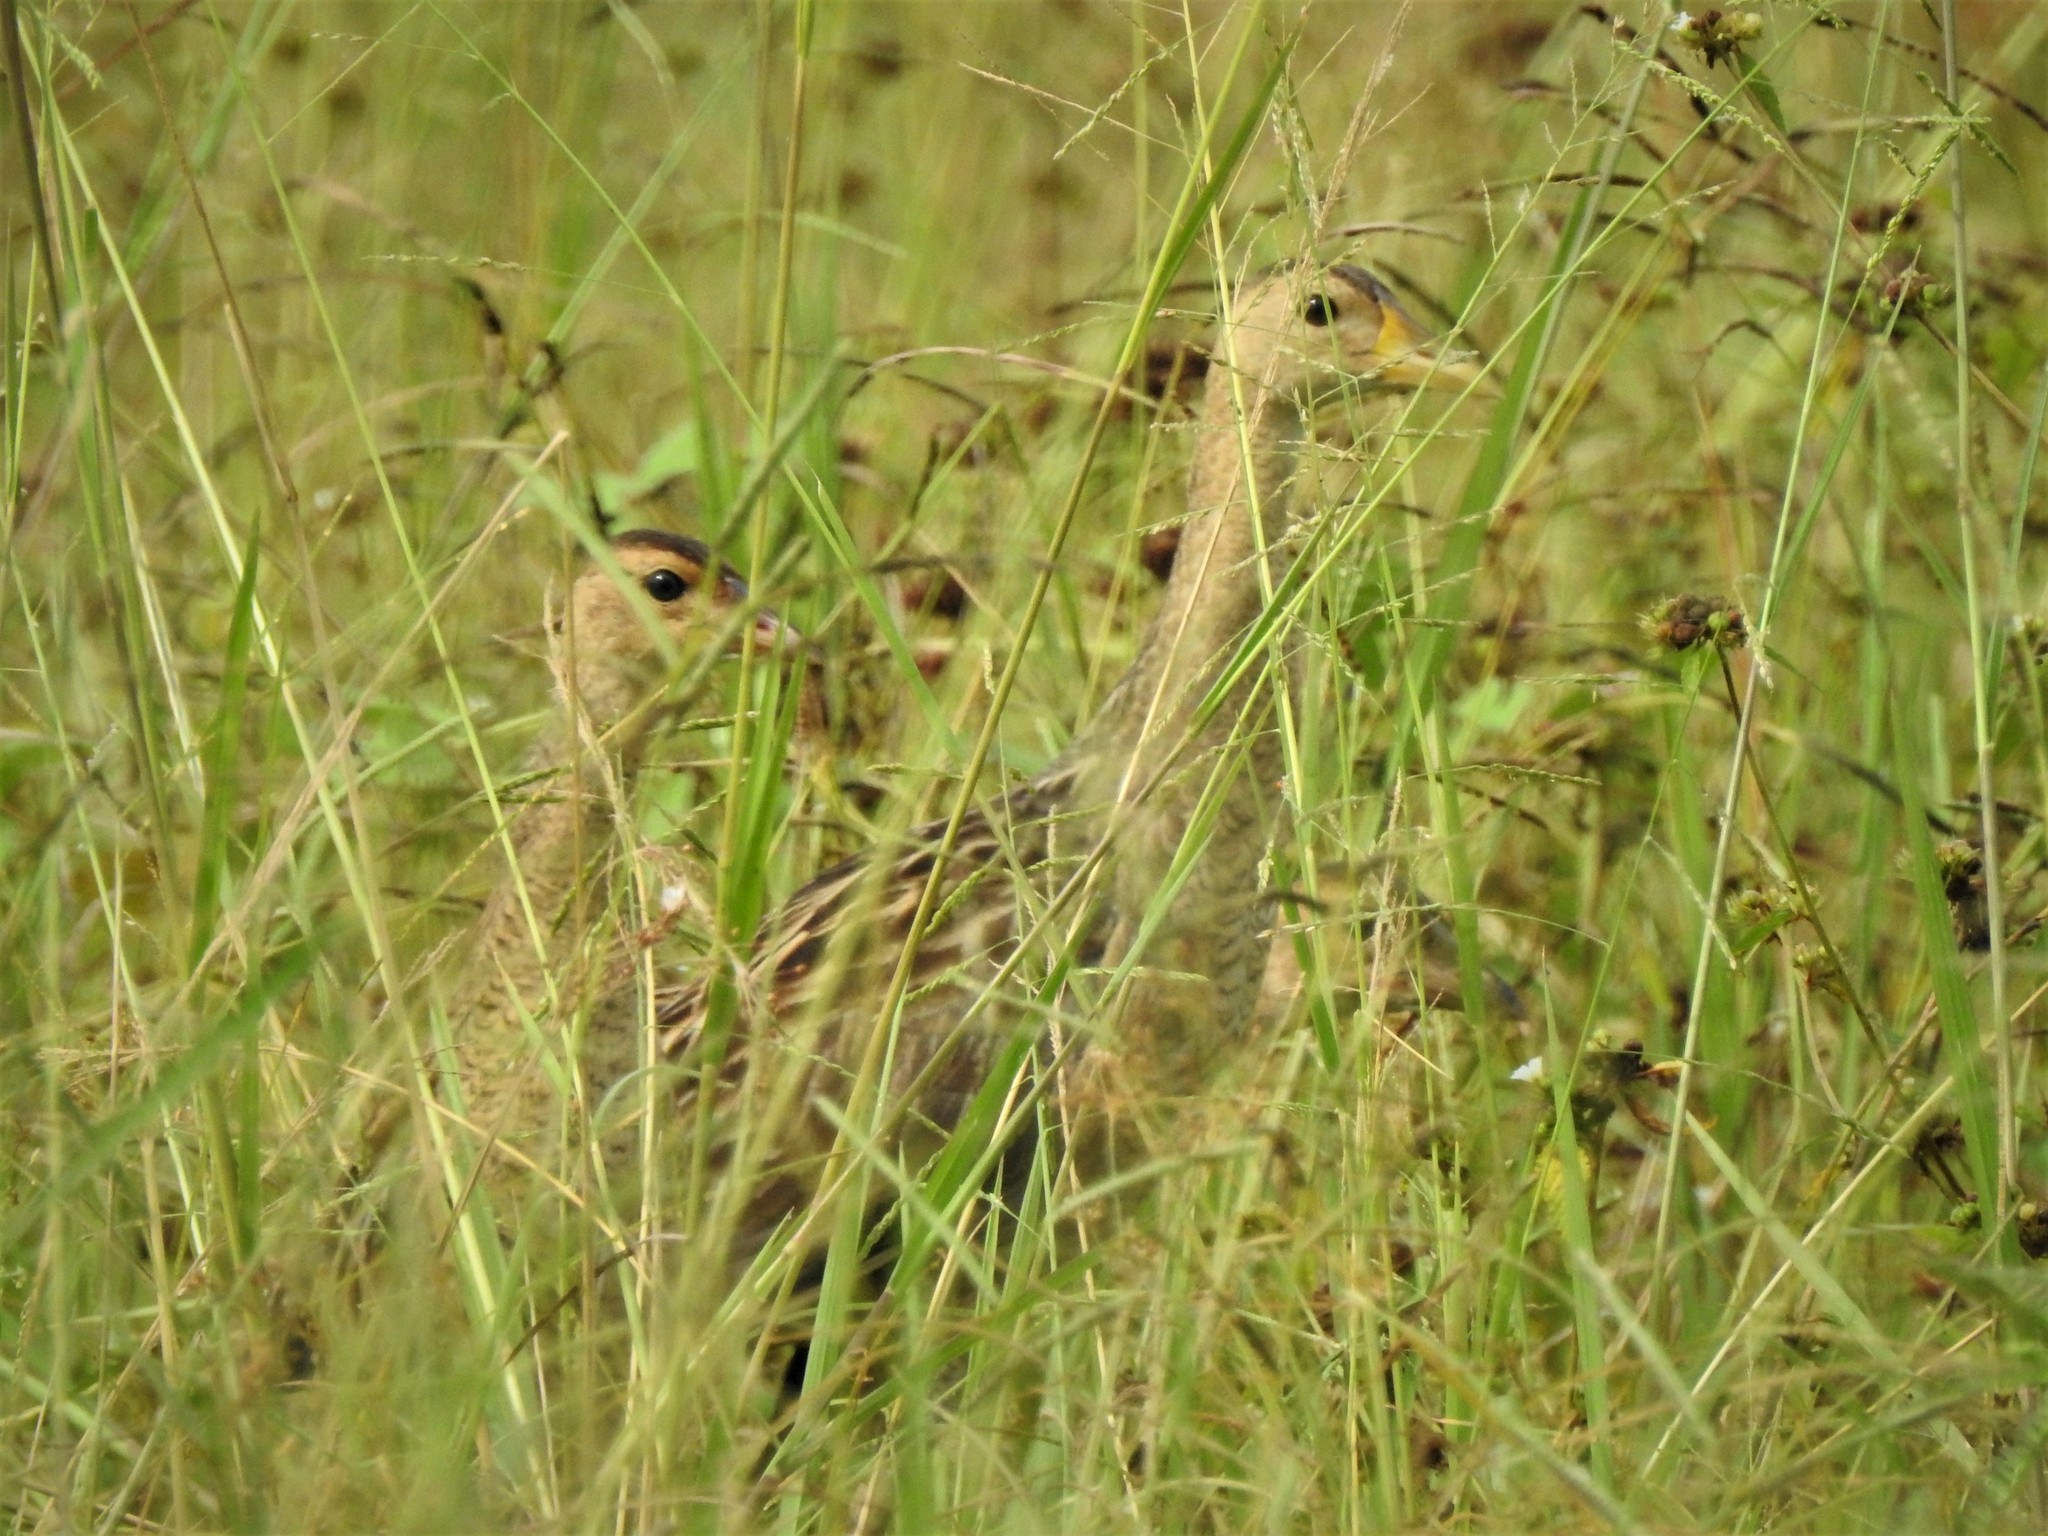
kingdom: Animalia
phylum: Chordata
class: Aves
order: Gruiformes
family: Rallidae
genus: Gallicrex
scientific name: Gallicrex cinerea
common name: Watercock
